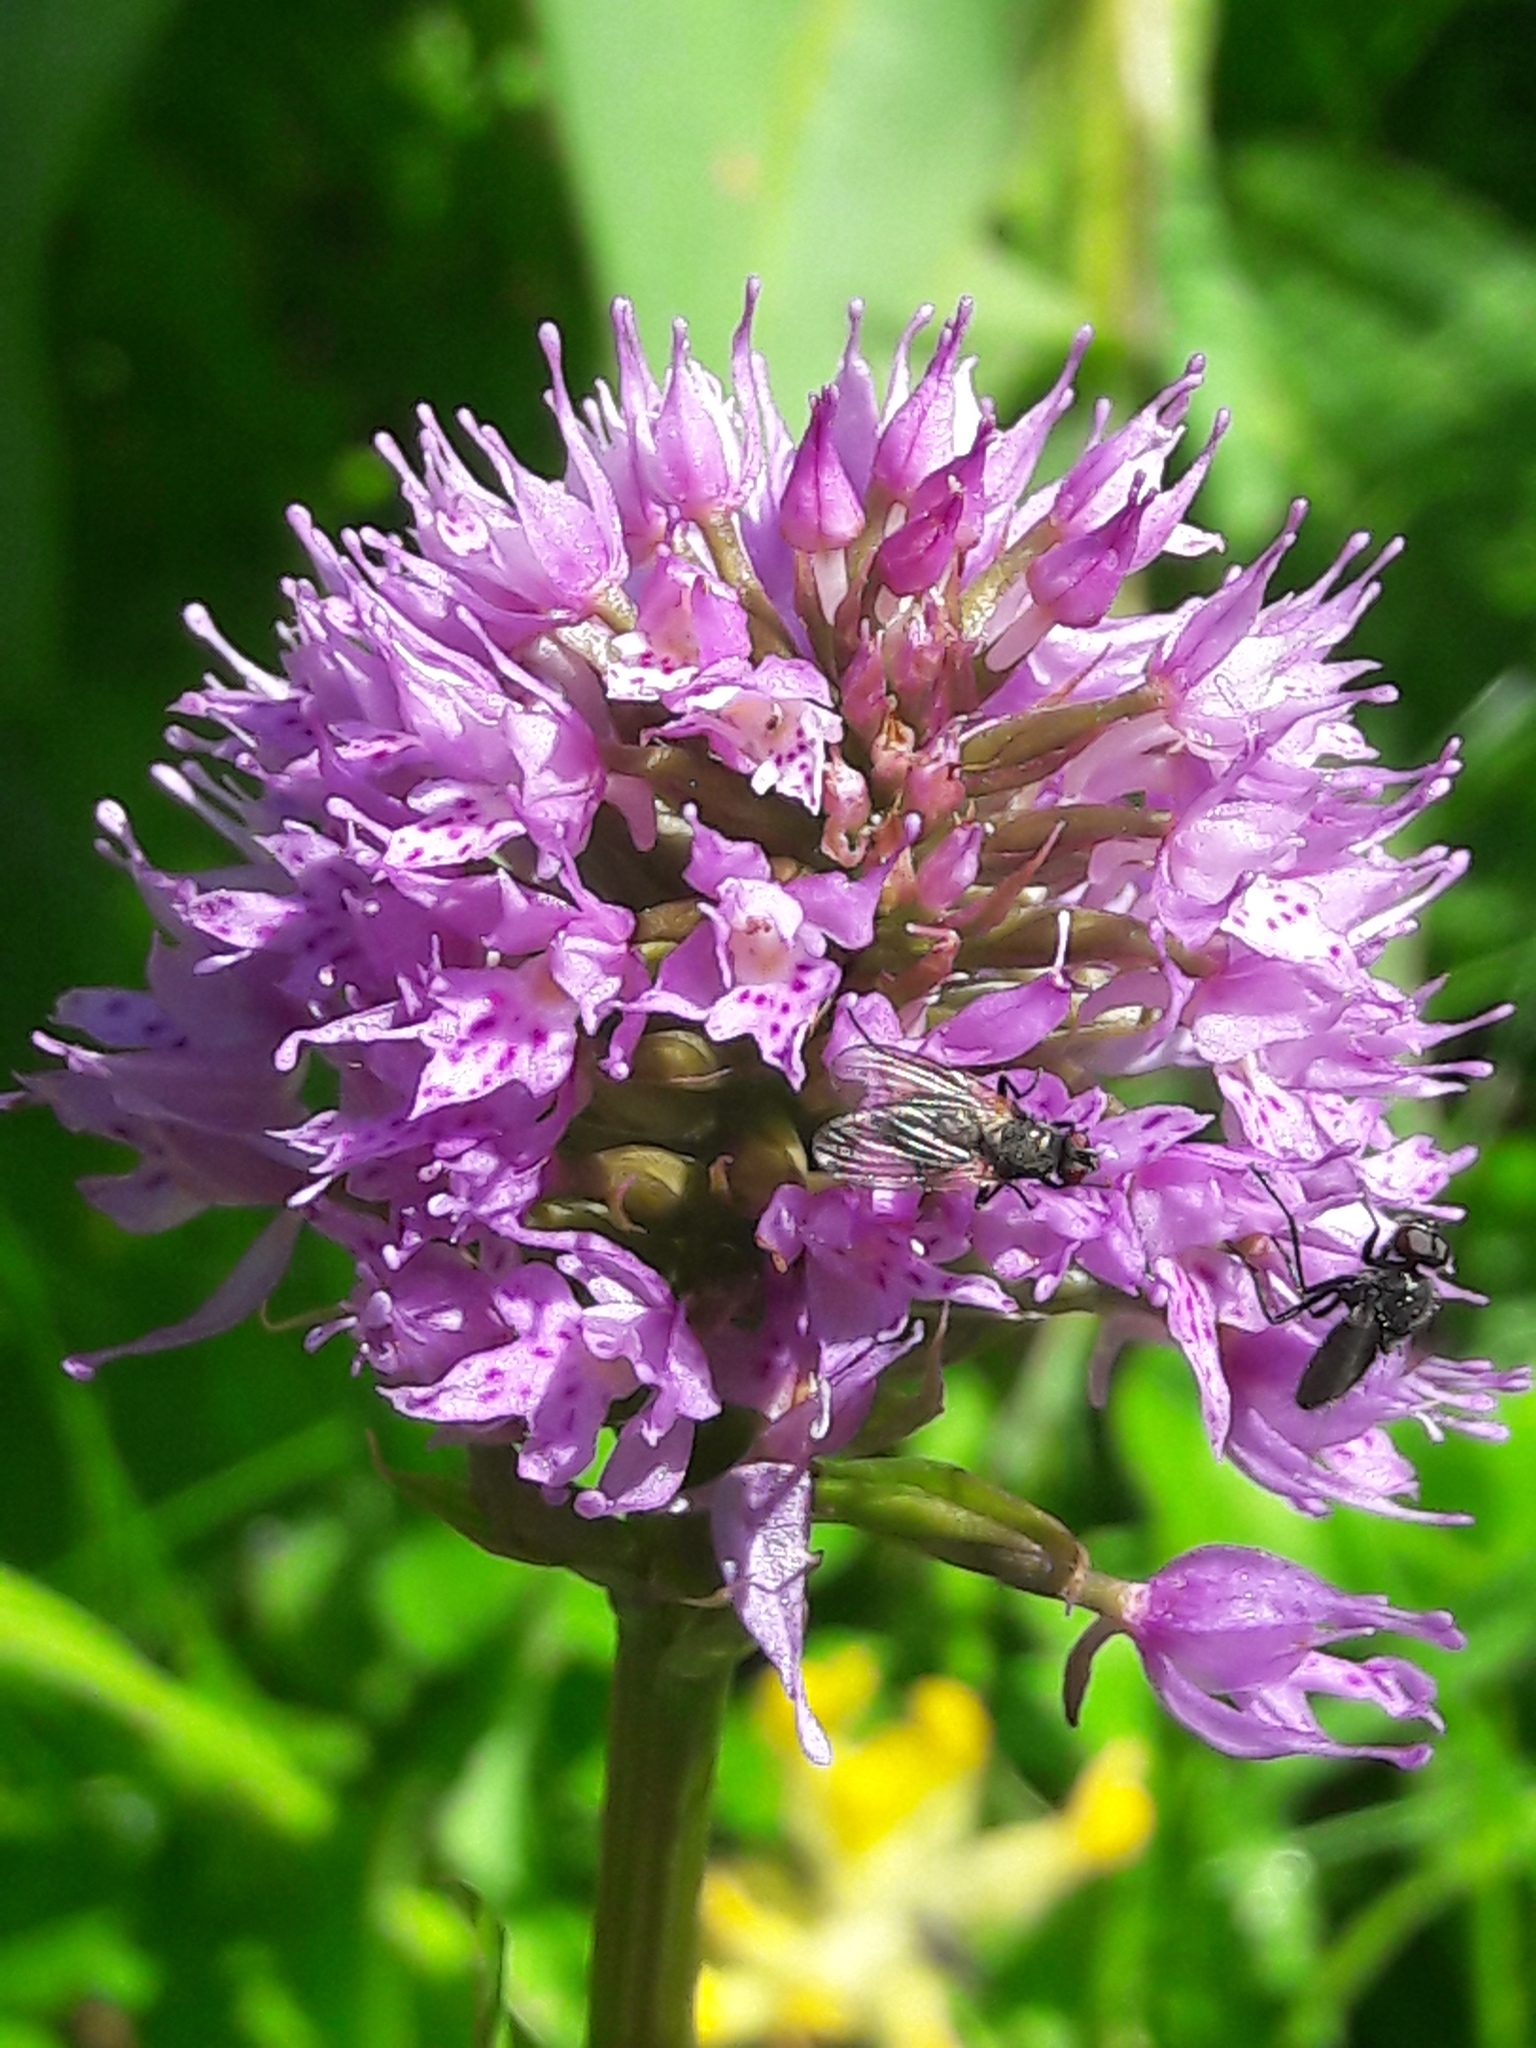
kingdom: Plantae
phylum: Tracheophyta
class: Liliopsida
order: Asparagales
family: Orchidaceae
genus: Traunsteinera
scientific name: Traunsteinera globosa
